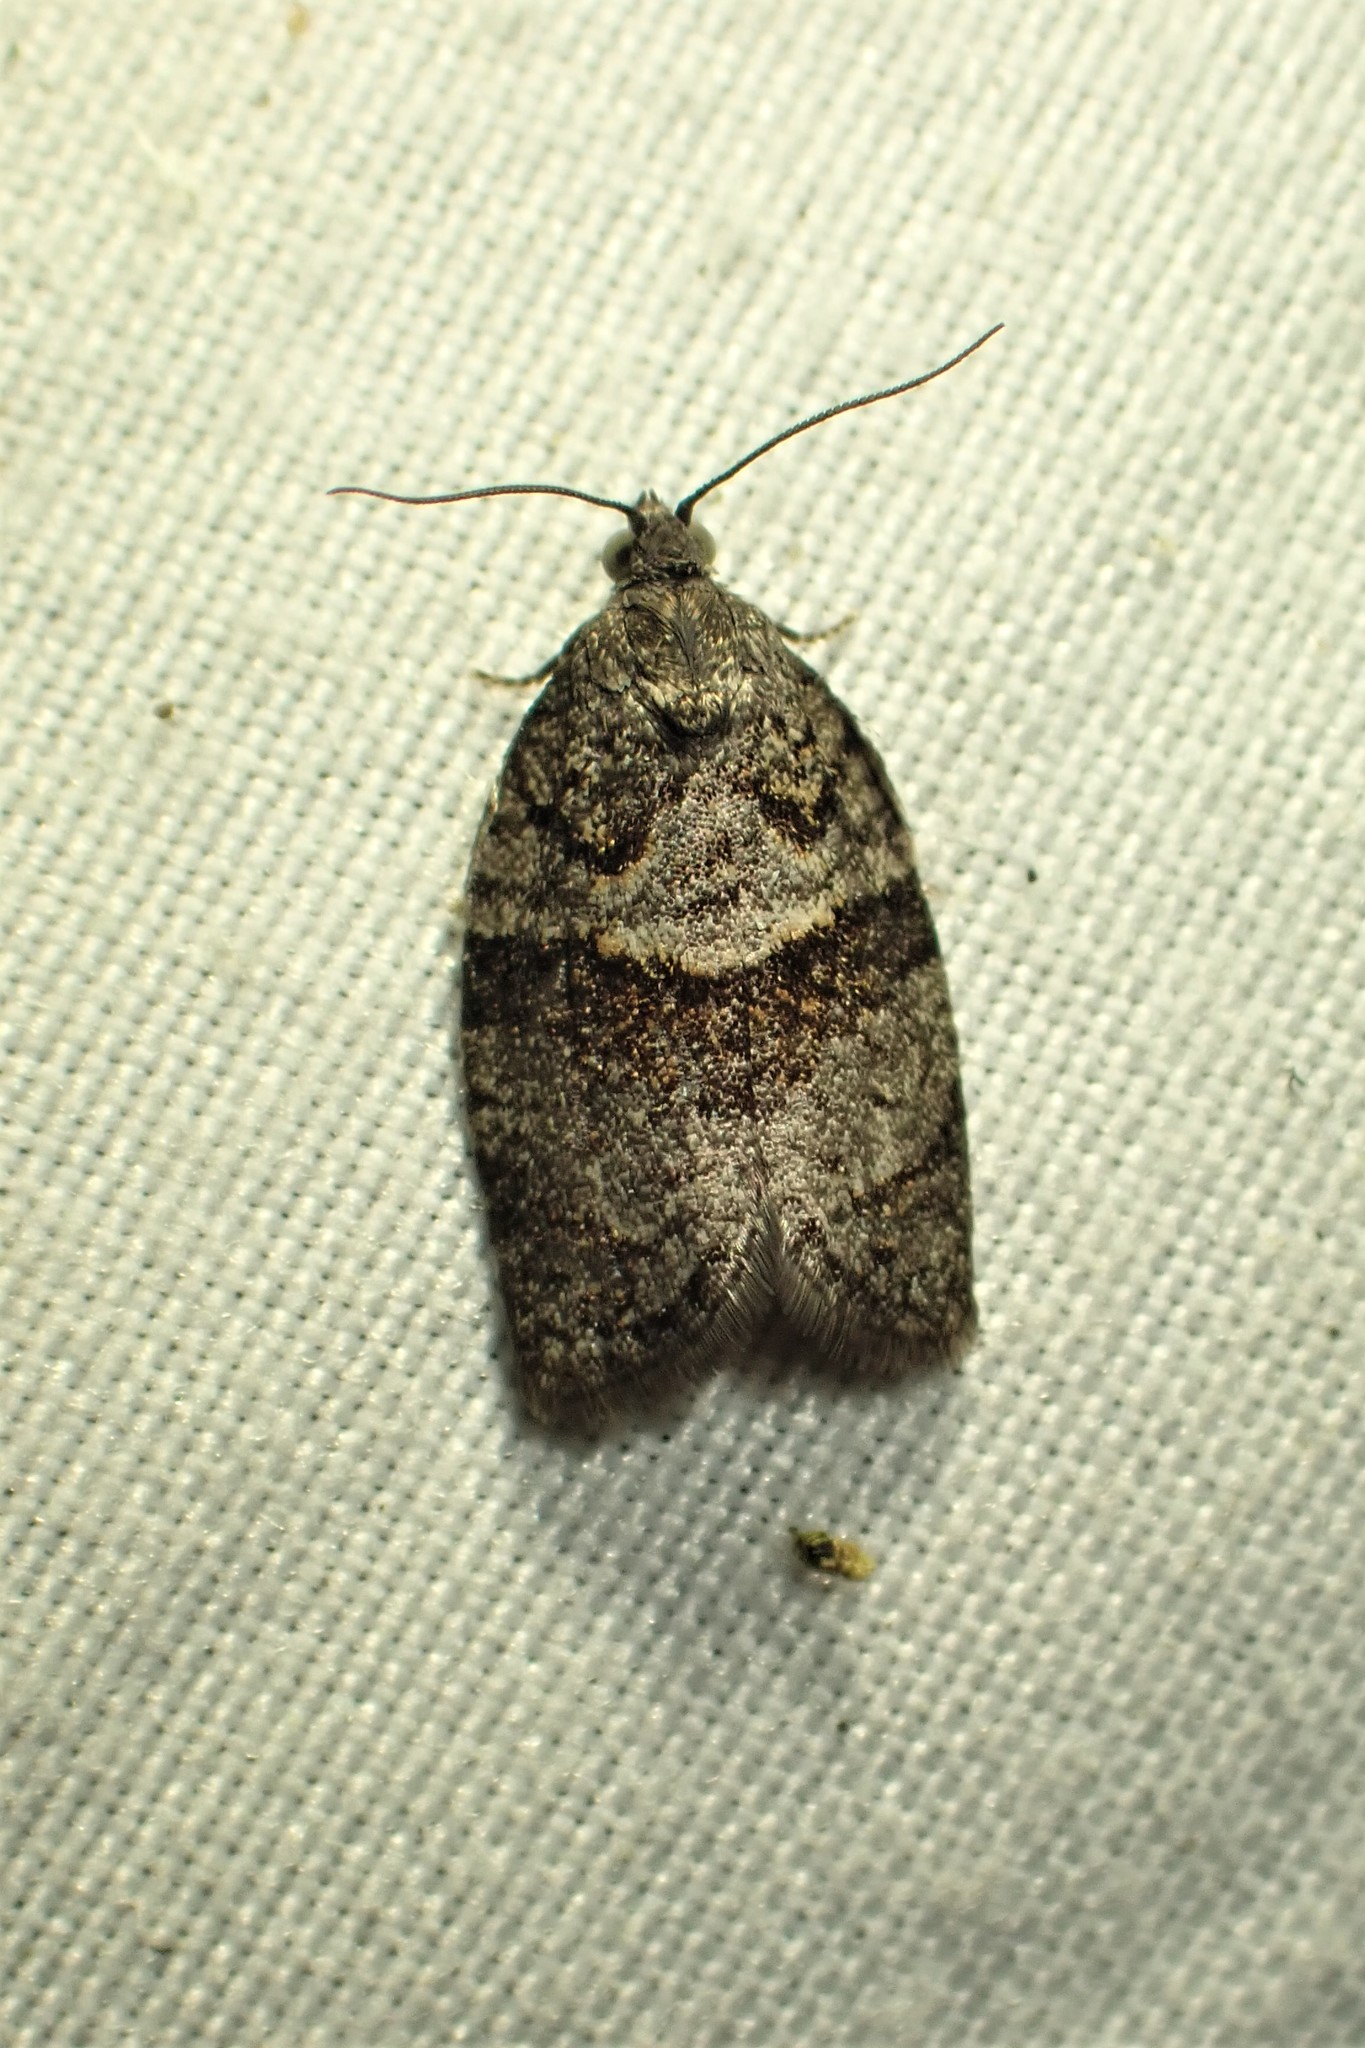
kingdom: Animalia
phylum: Arthropoda
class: Insecta
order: Lepidoptera
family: Tortricidae
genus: Syndemis
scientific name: Syndemis afflictana
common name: Gray leafroller moth
